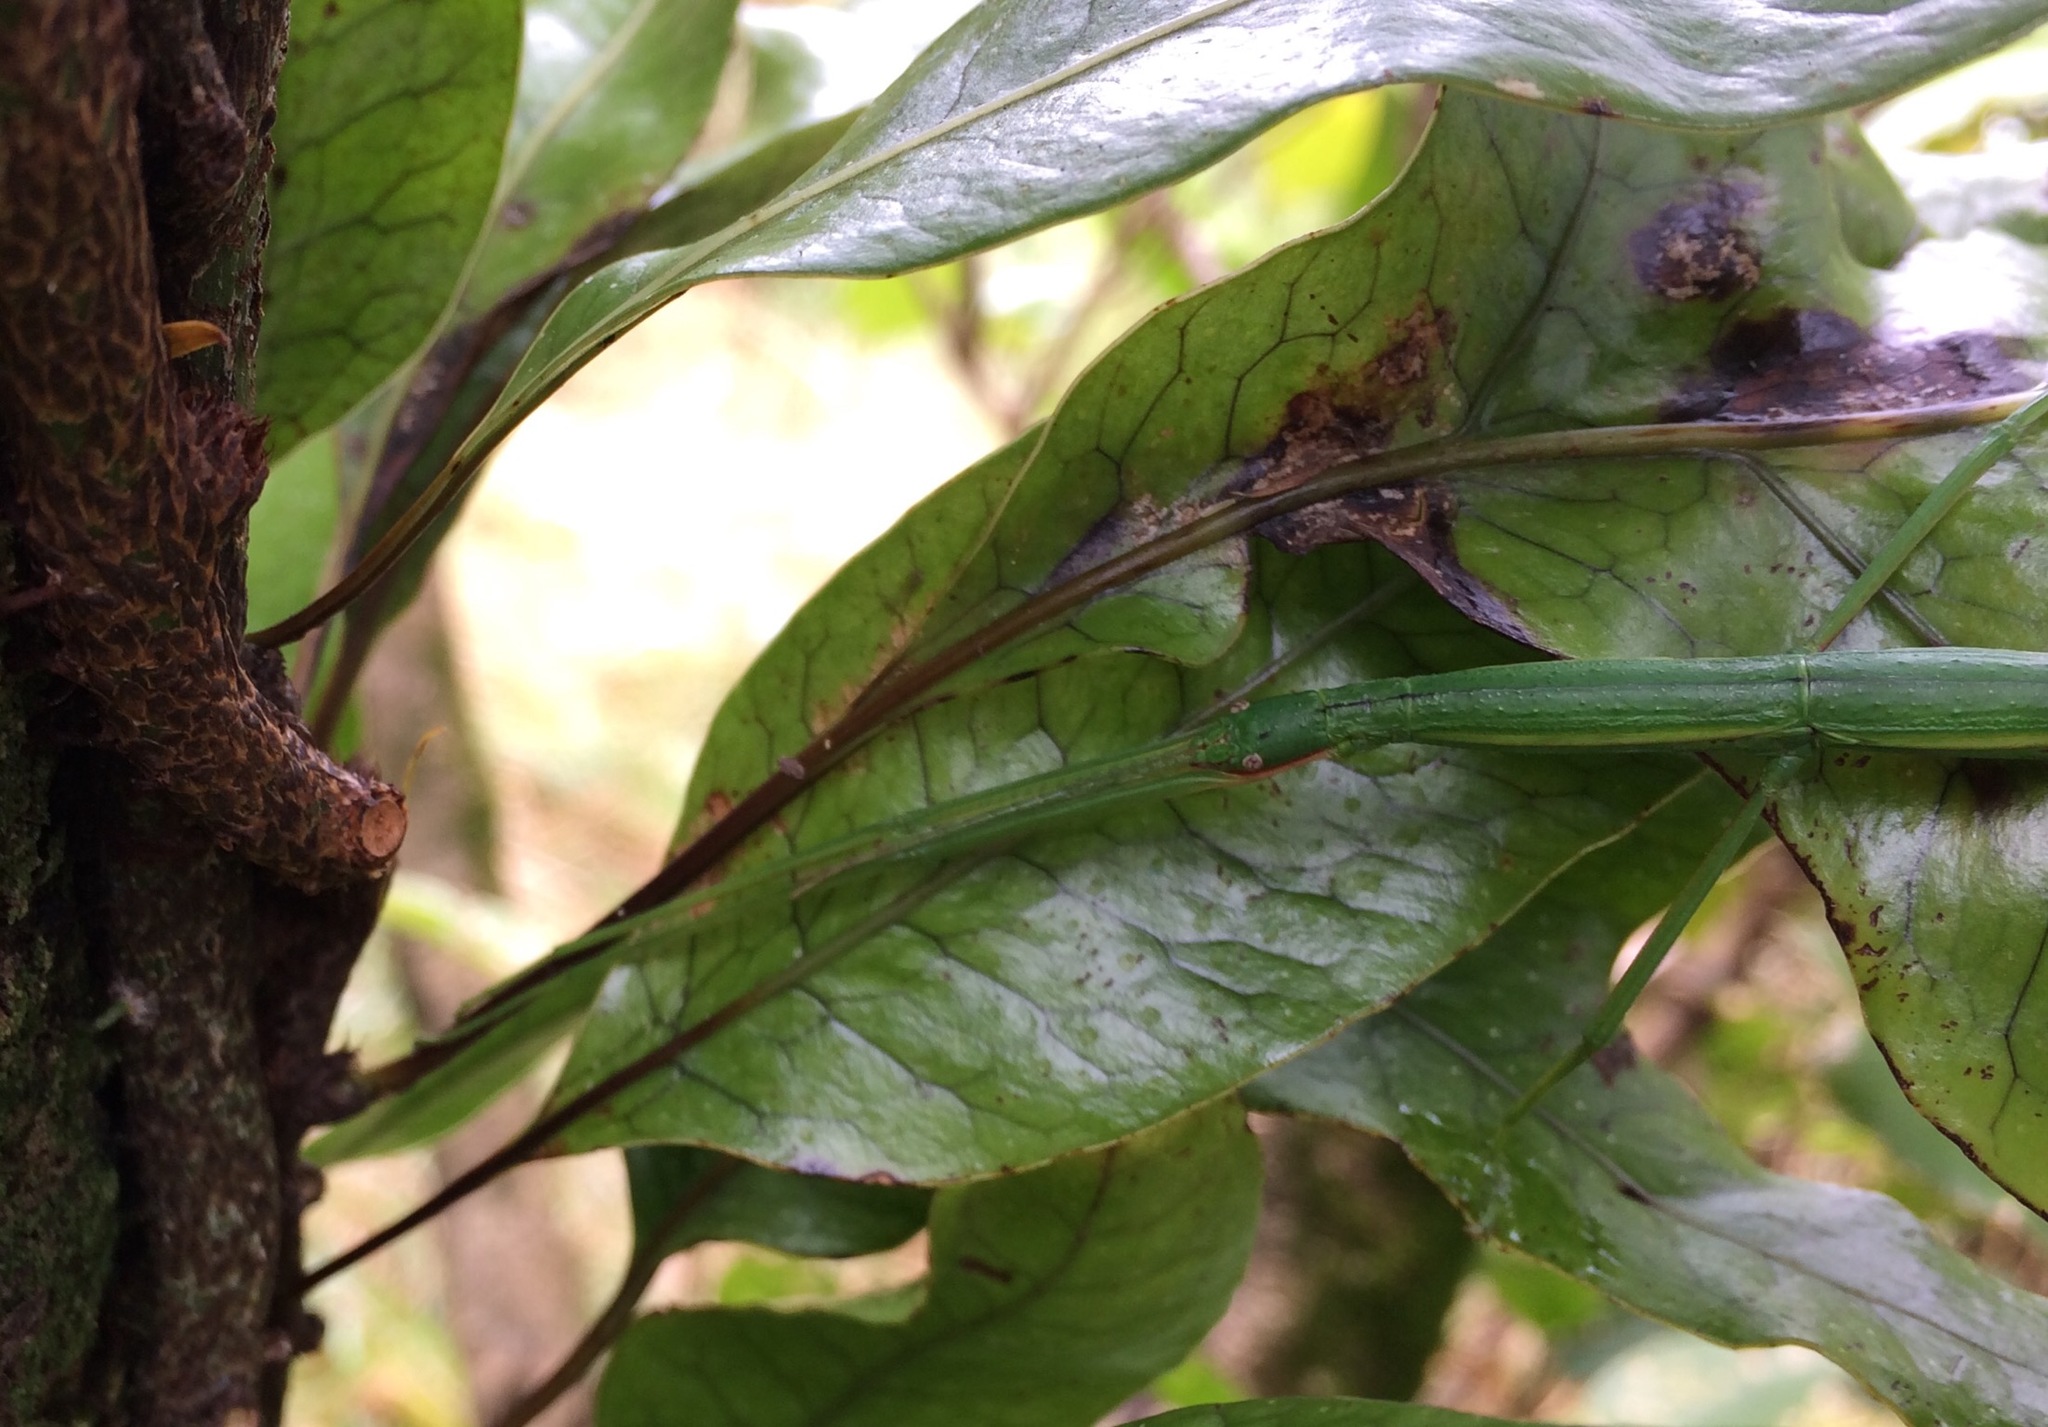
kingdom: Animalia
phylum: Arthropoda
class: Insecta
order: Phasmida
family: Phasmatidae
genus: Clitarchus
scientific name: Clitarchus hookeri
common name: Smooth stick insect
